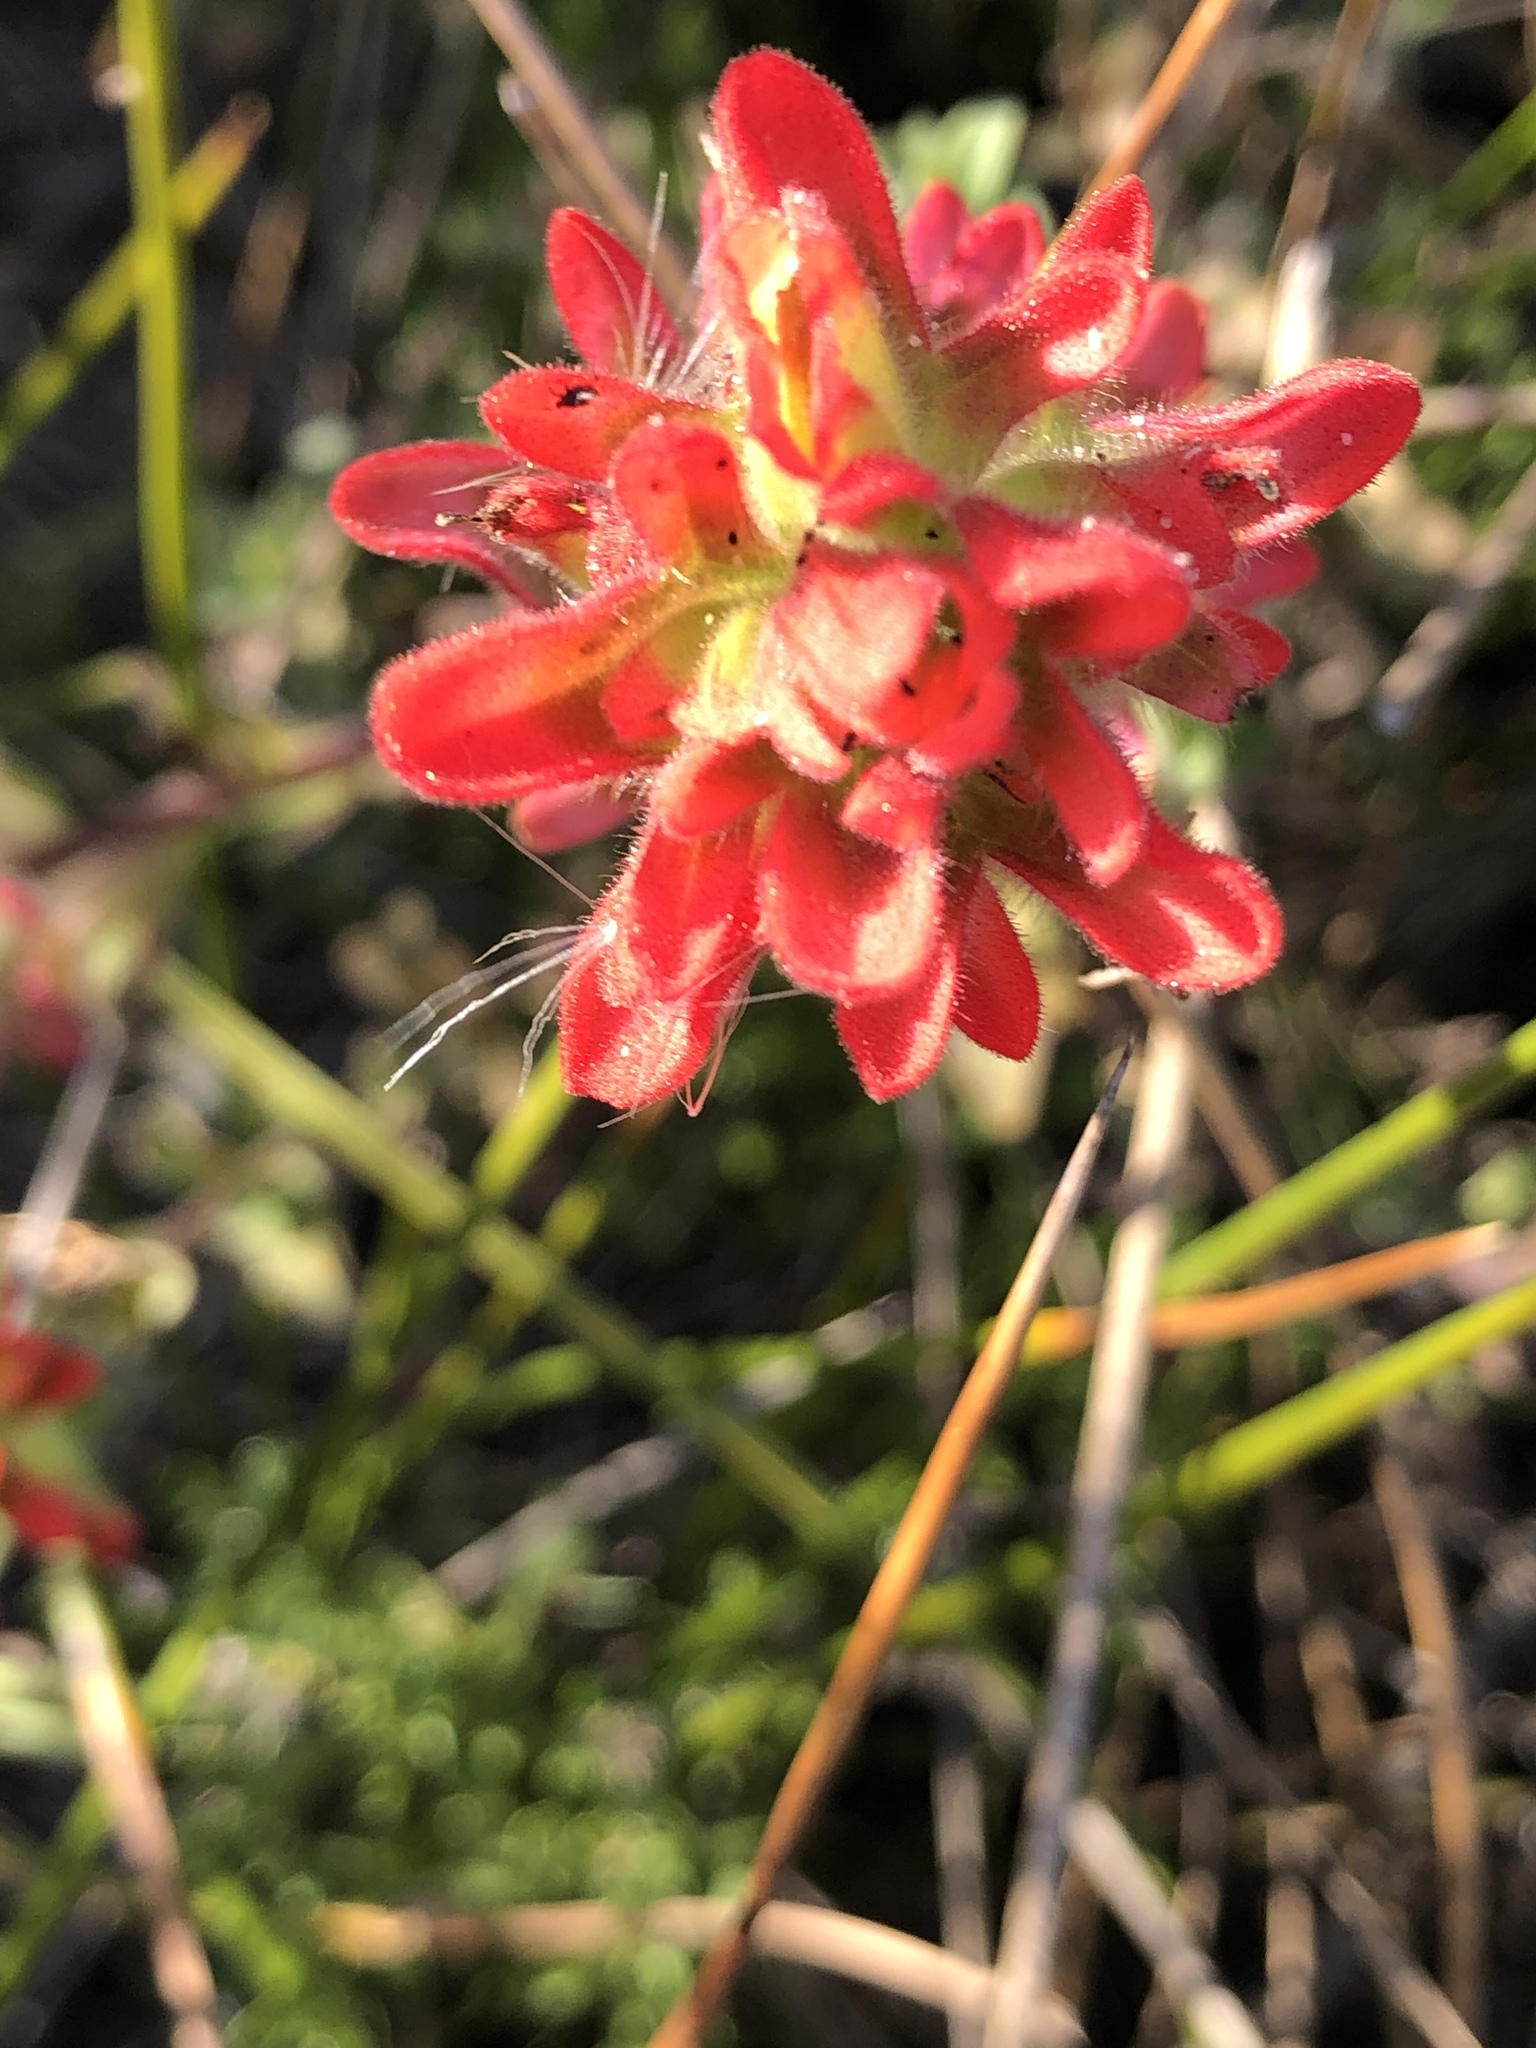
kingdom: Plantae
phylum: Tracheophyta
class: Magnoliopsida
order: Lamiales
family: Orobanchaceae
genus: Castilleja
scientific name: Castilleja latifolia
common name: Monterey indian paintbrush
